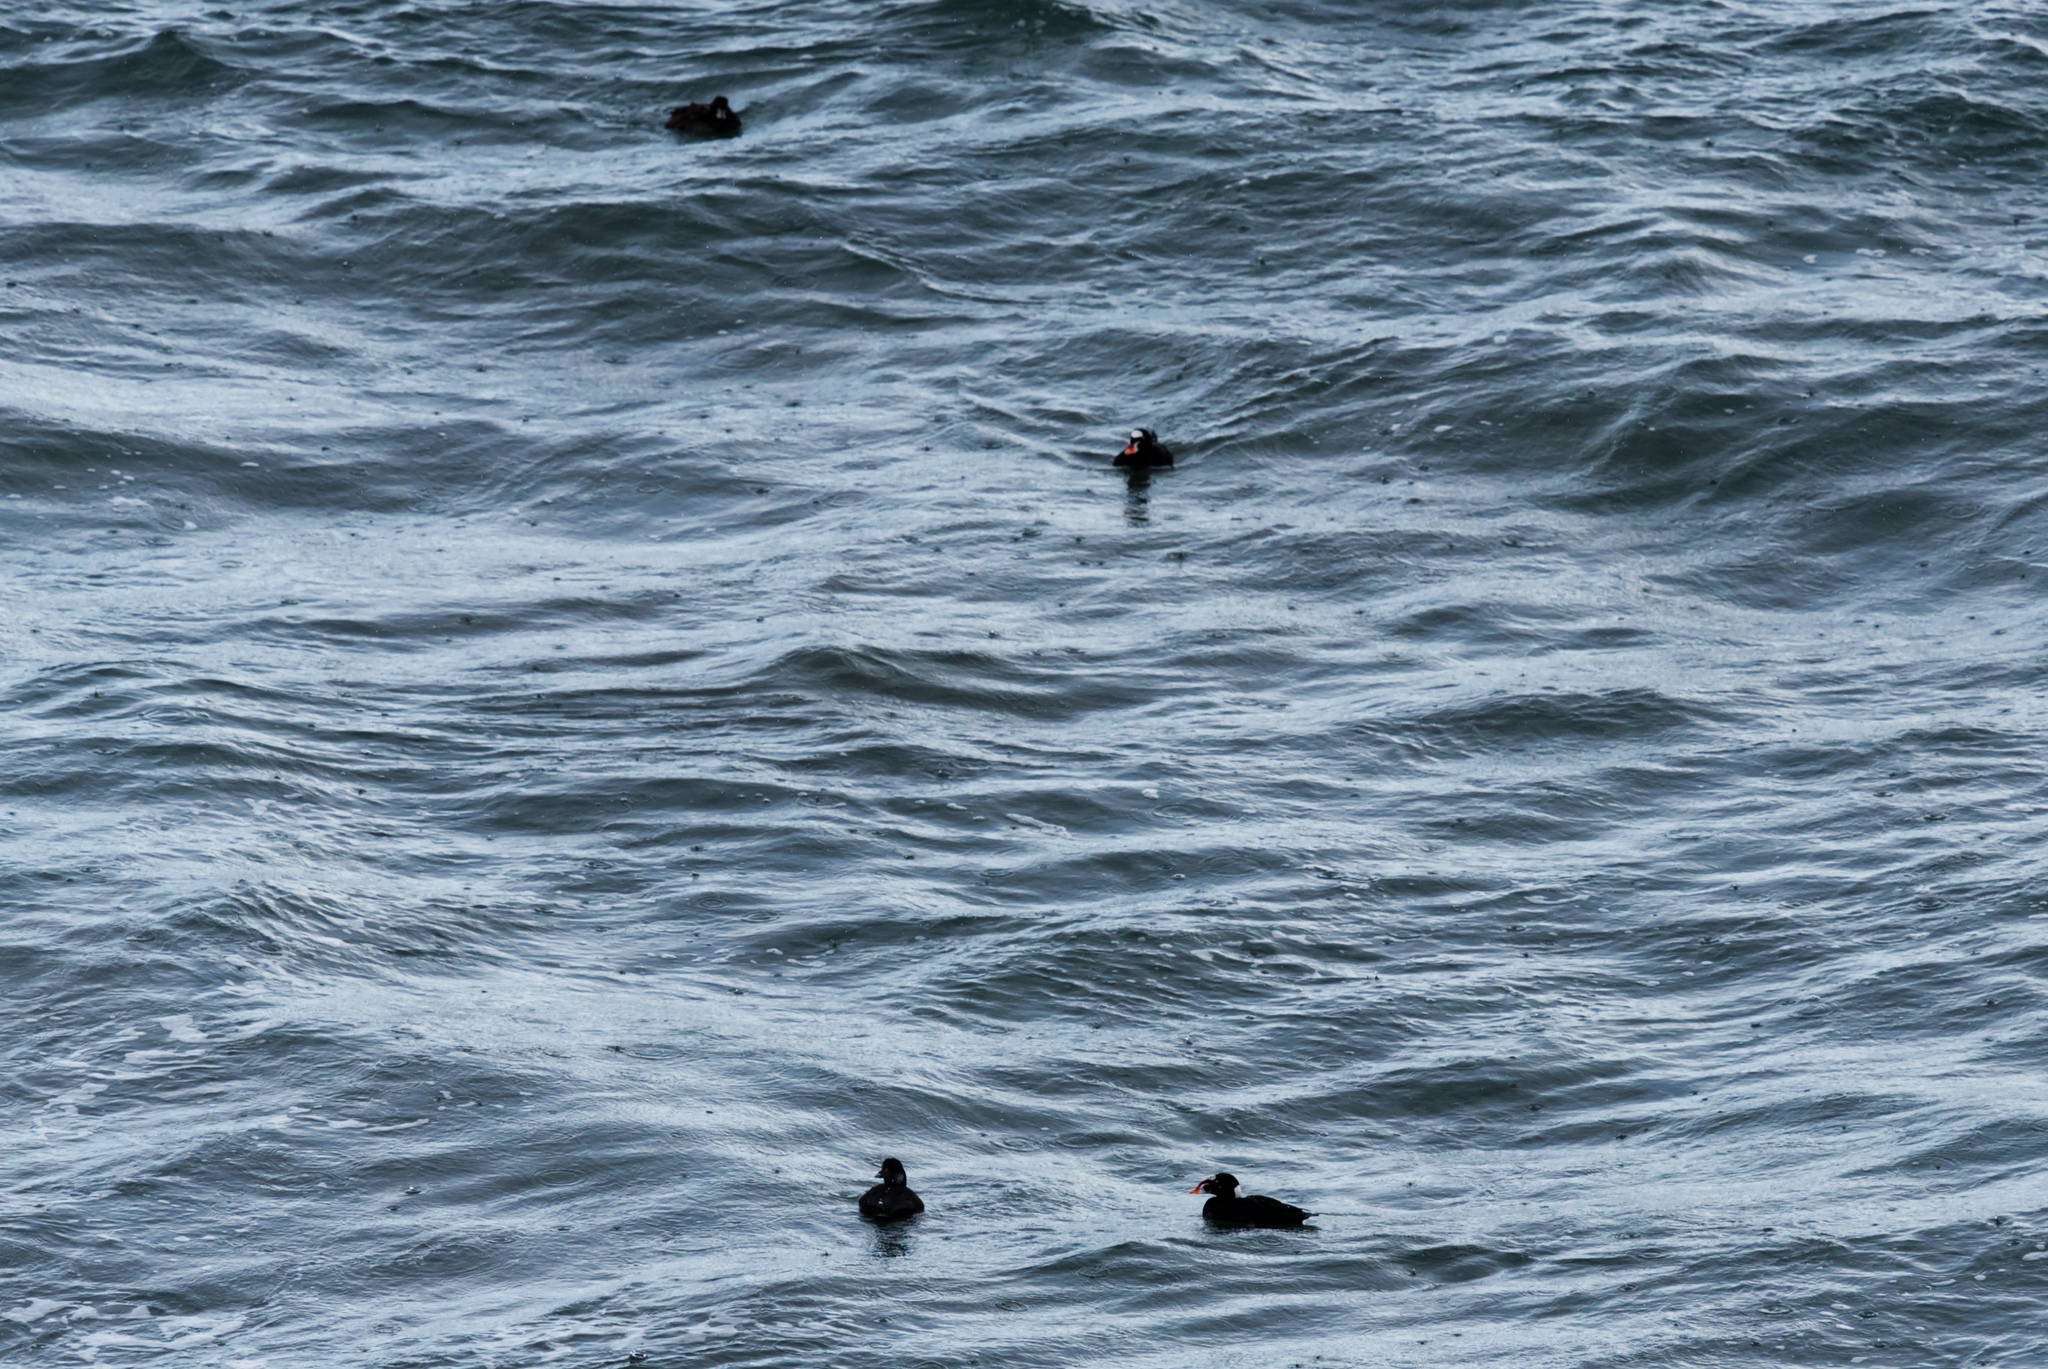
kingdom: Animalia
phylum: Chordata
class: Aves
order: Anseriformes
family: Anatidae
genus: Melanitta
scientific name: Melanitta perspicillata
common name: Surf scoter
